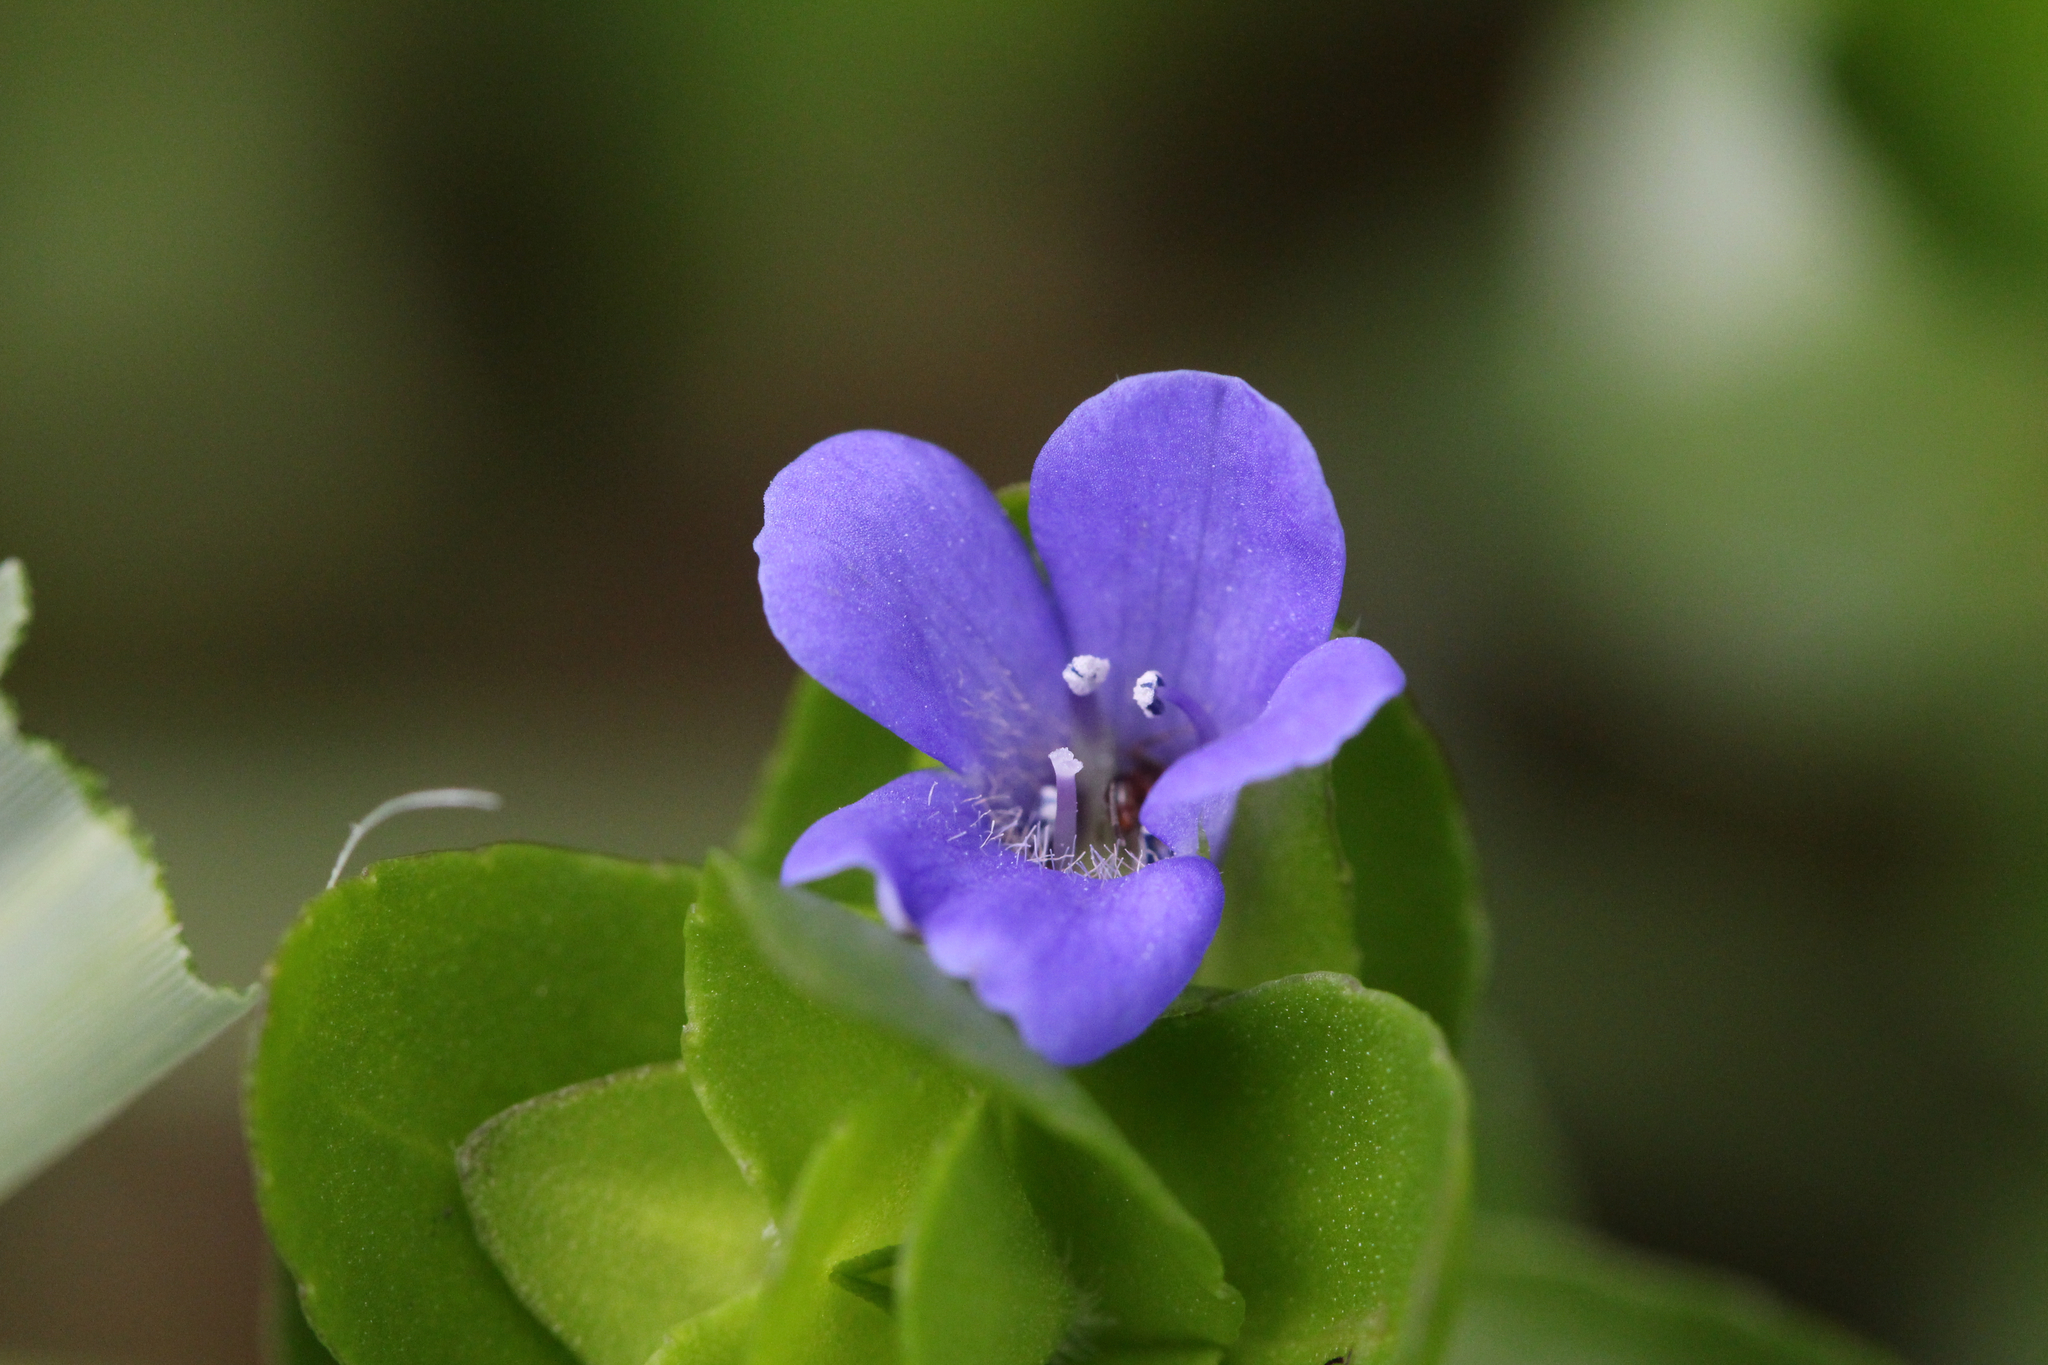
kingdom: Plantae
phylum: Tracheophyta
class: Magnoliopsida
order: Lamiales
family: Plantaginaceae
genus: Bacopa
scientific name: Bacopa caroliniana
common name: Lemon bacopa
